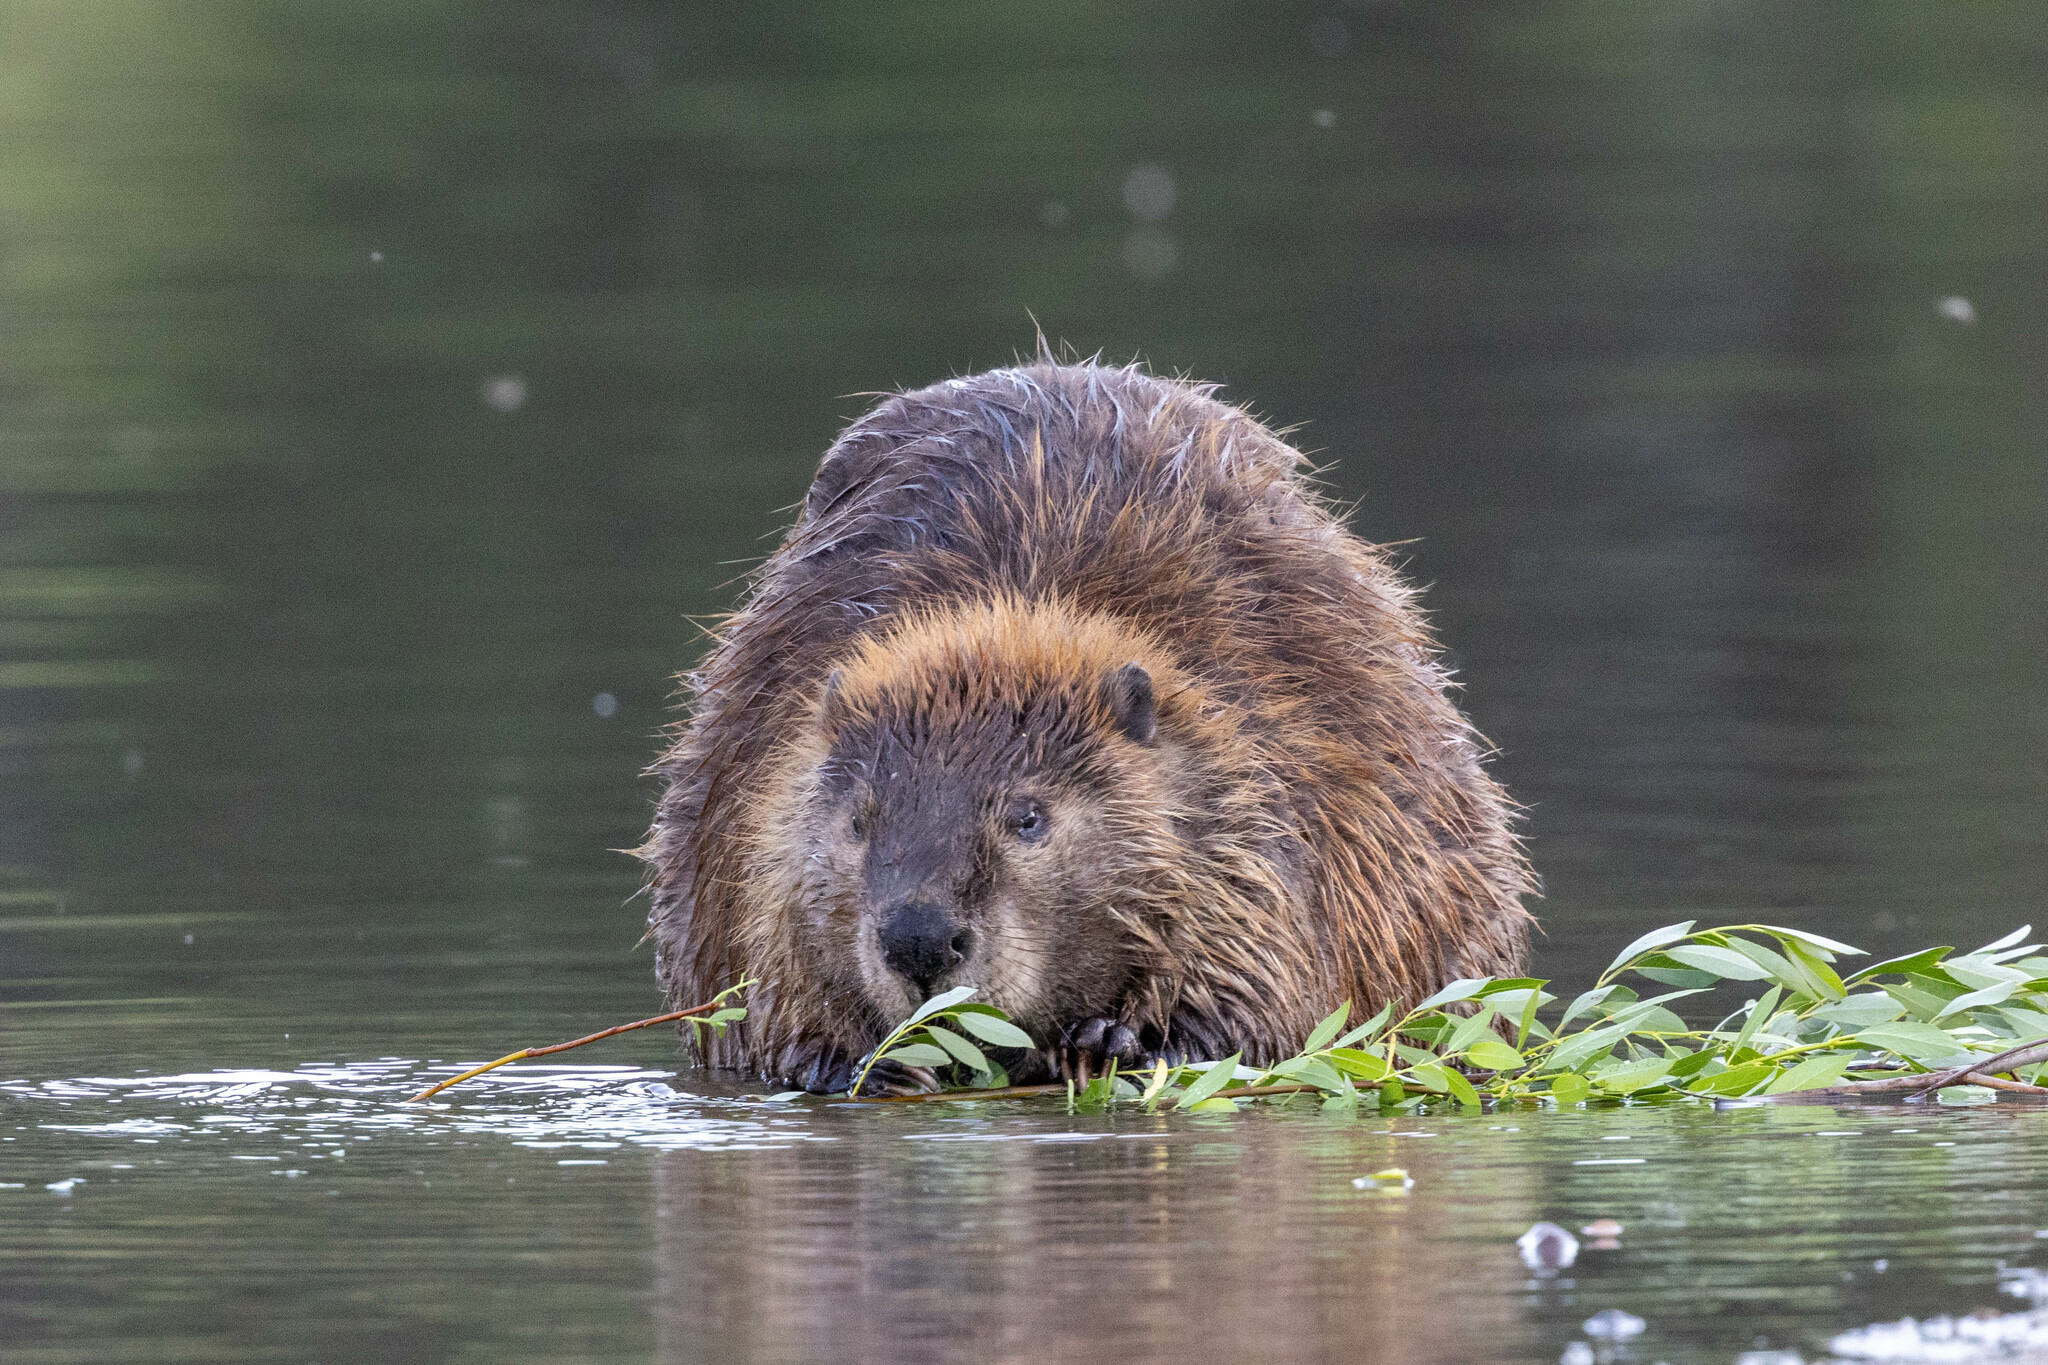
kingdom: Animalia
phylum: Chordata
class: Mammalia
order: Rodentia
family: Castoridae
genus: Castor
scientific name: Castor canadensis
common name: American beaver
